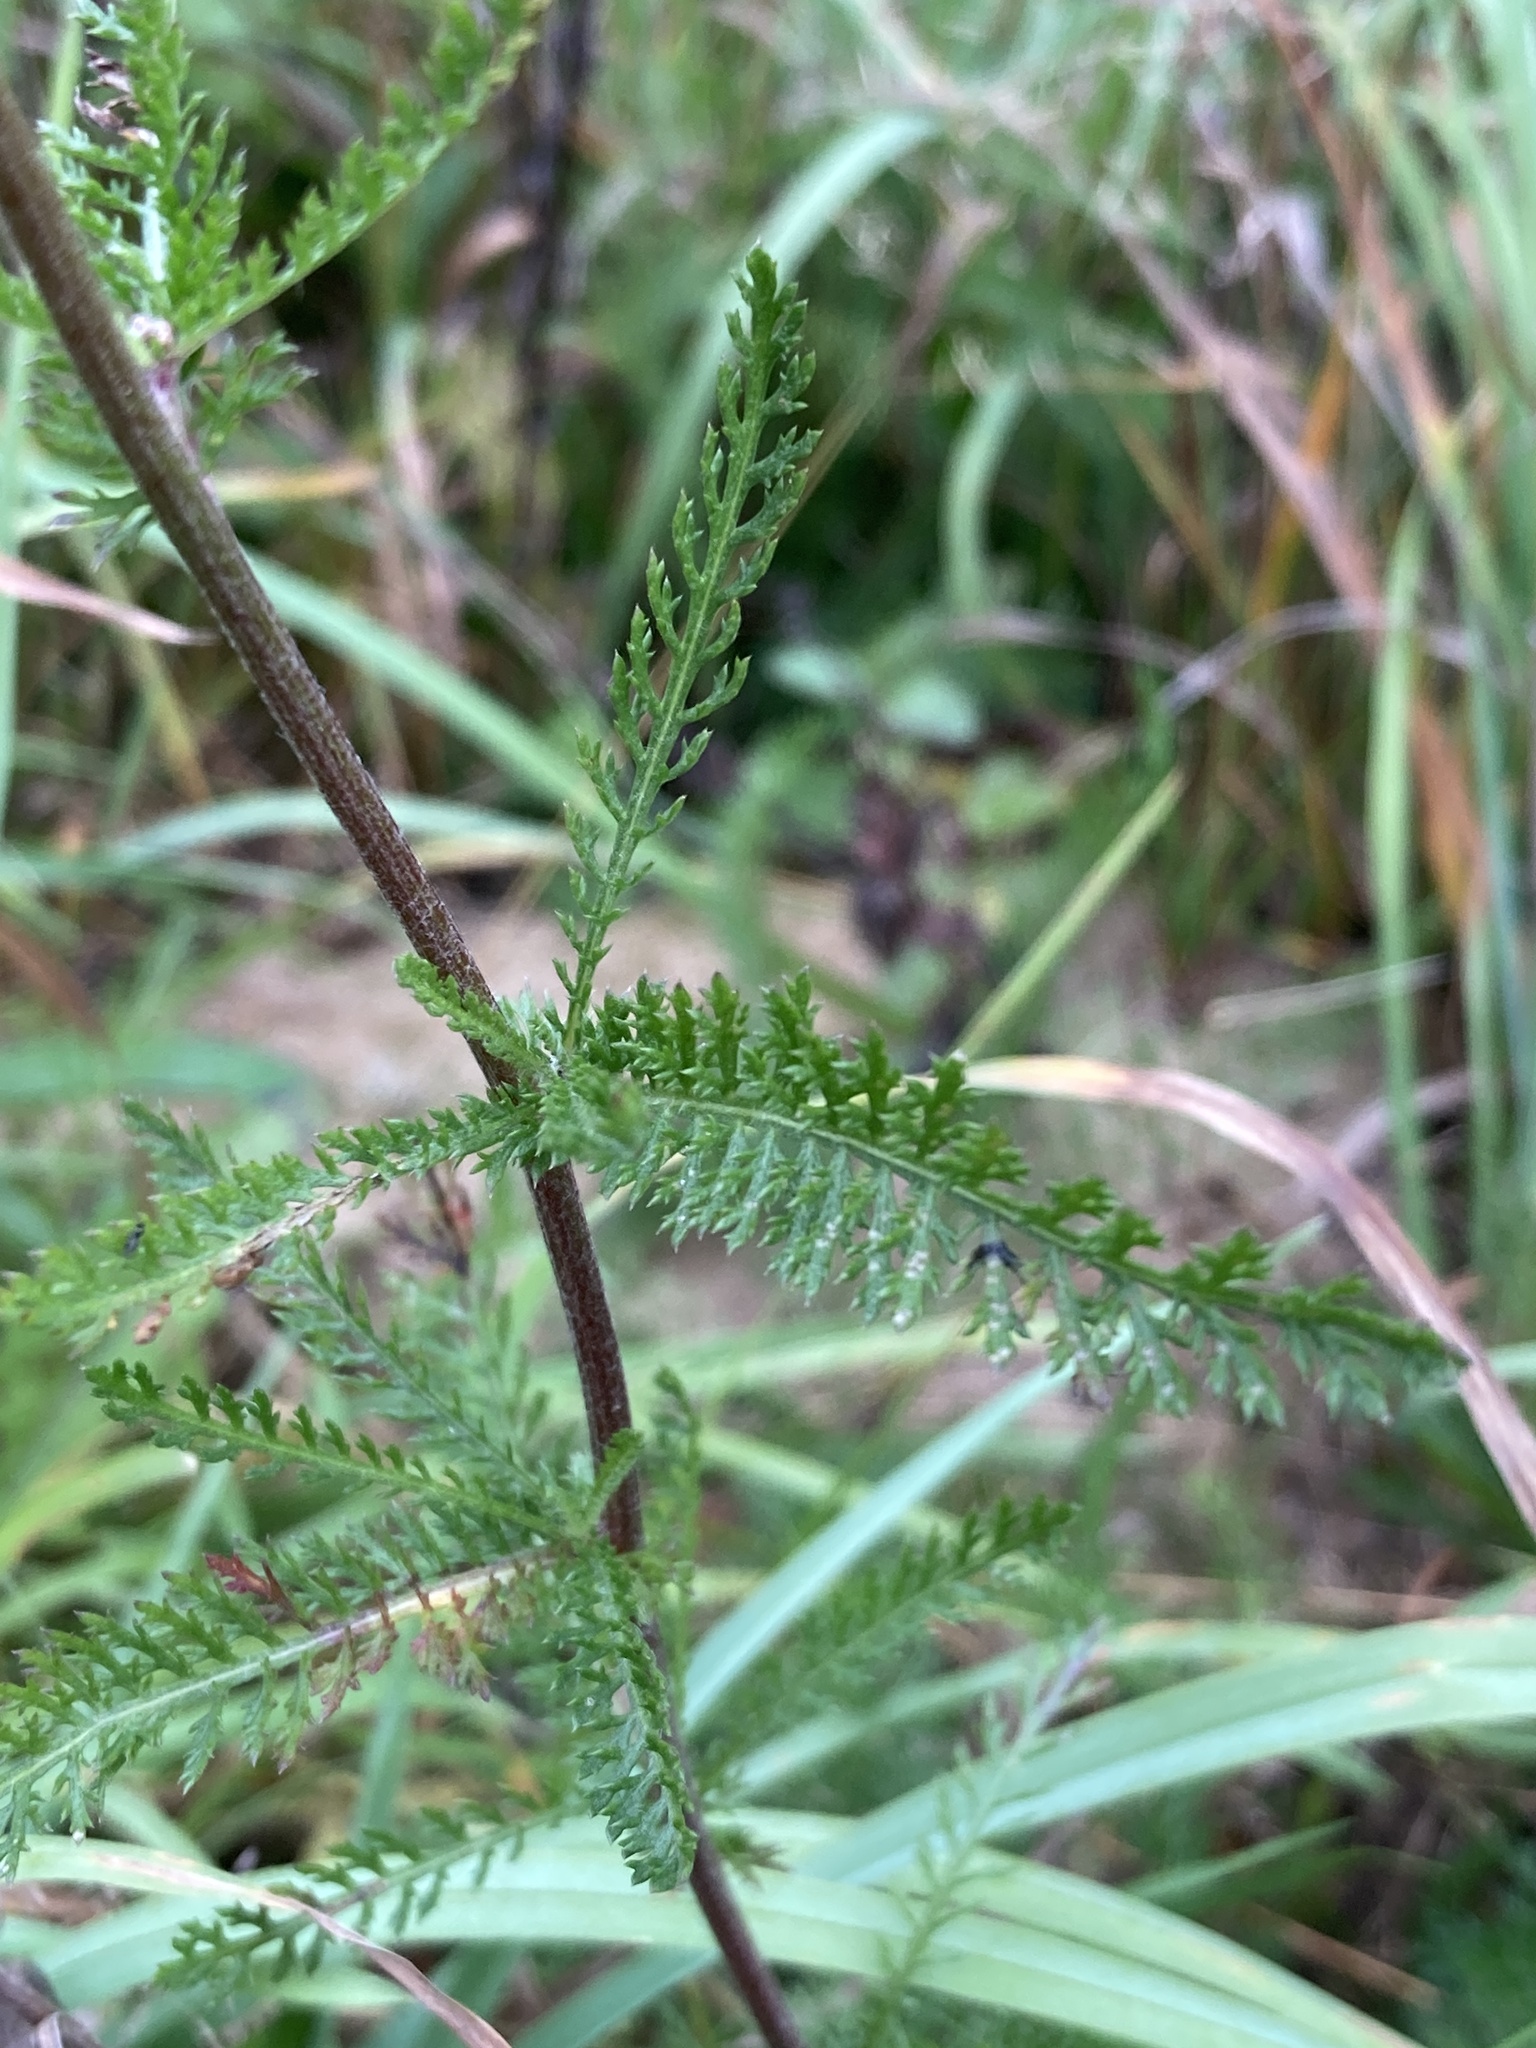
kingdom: Plantae
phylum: Tracheophyta
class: Magnoliopsida
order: Asterales
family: Asteraceae
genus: Achillea
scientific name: Achillea millefolium
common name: Yarrow
